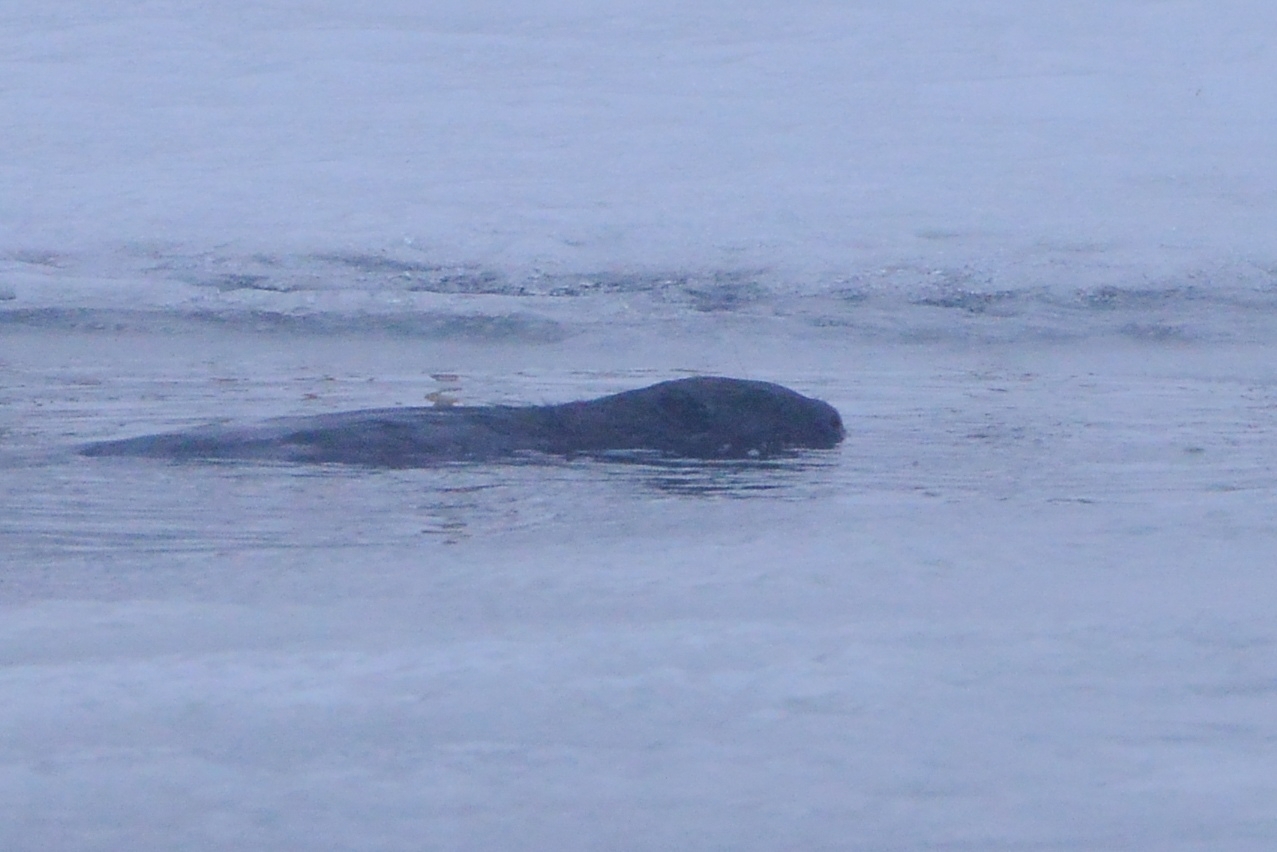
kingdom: Animalia
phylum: Chordata
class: Mammalia
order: Rodentia
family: Castoridae
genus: Castor
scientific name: Castor fiber
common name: Eurasian beaver
